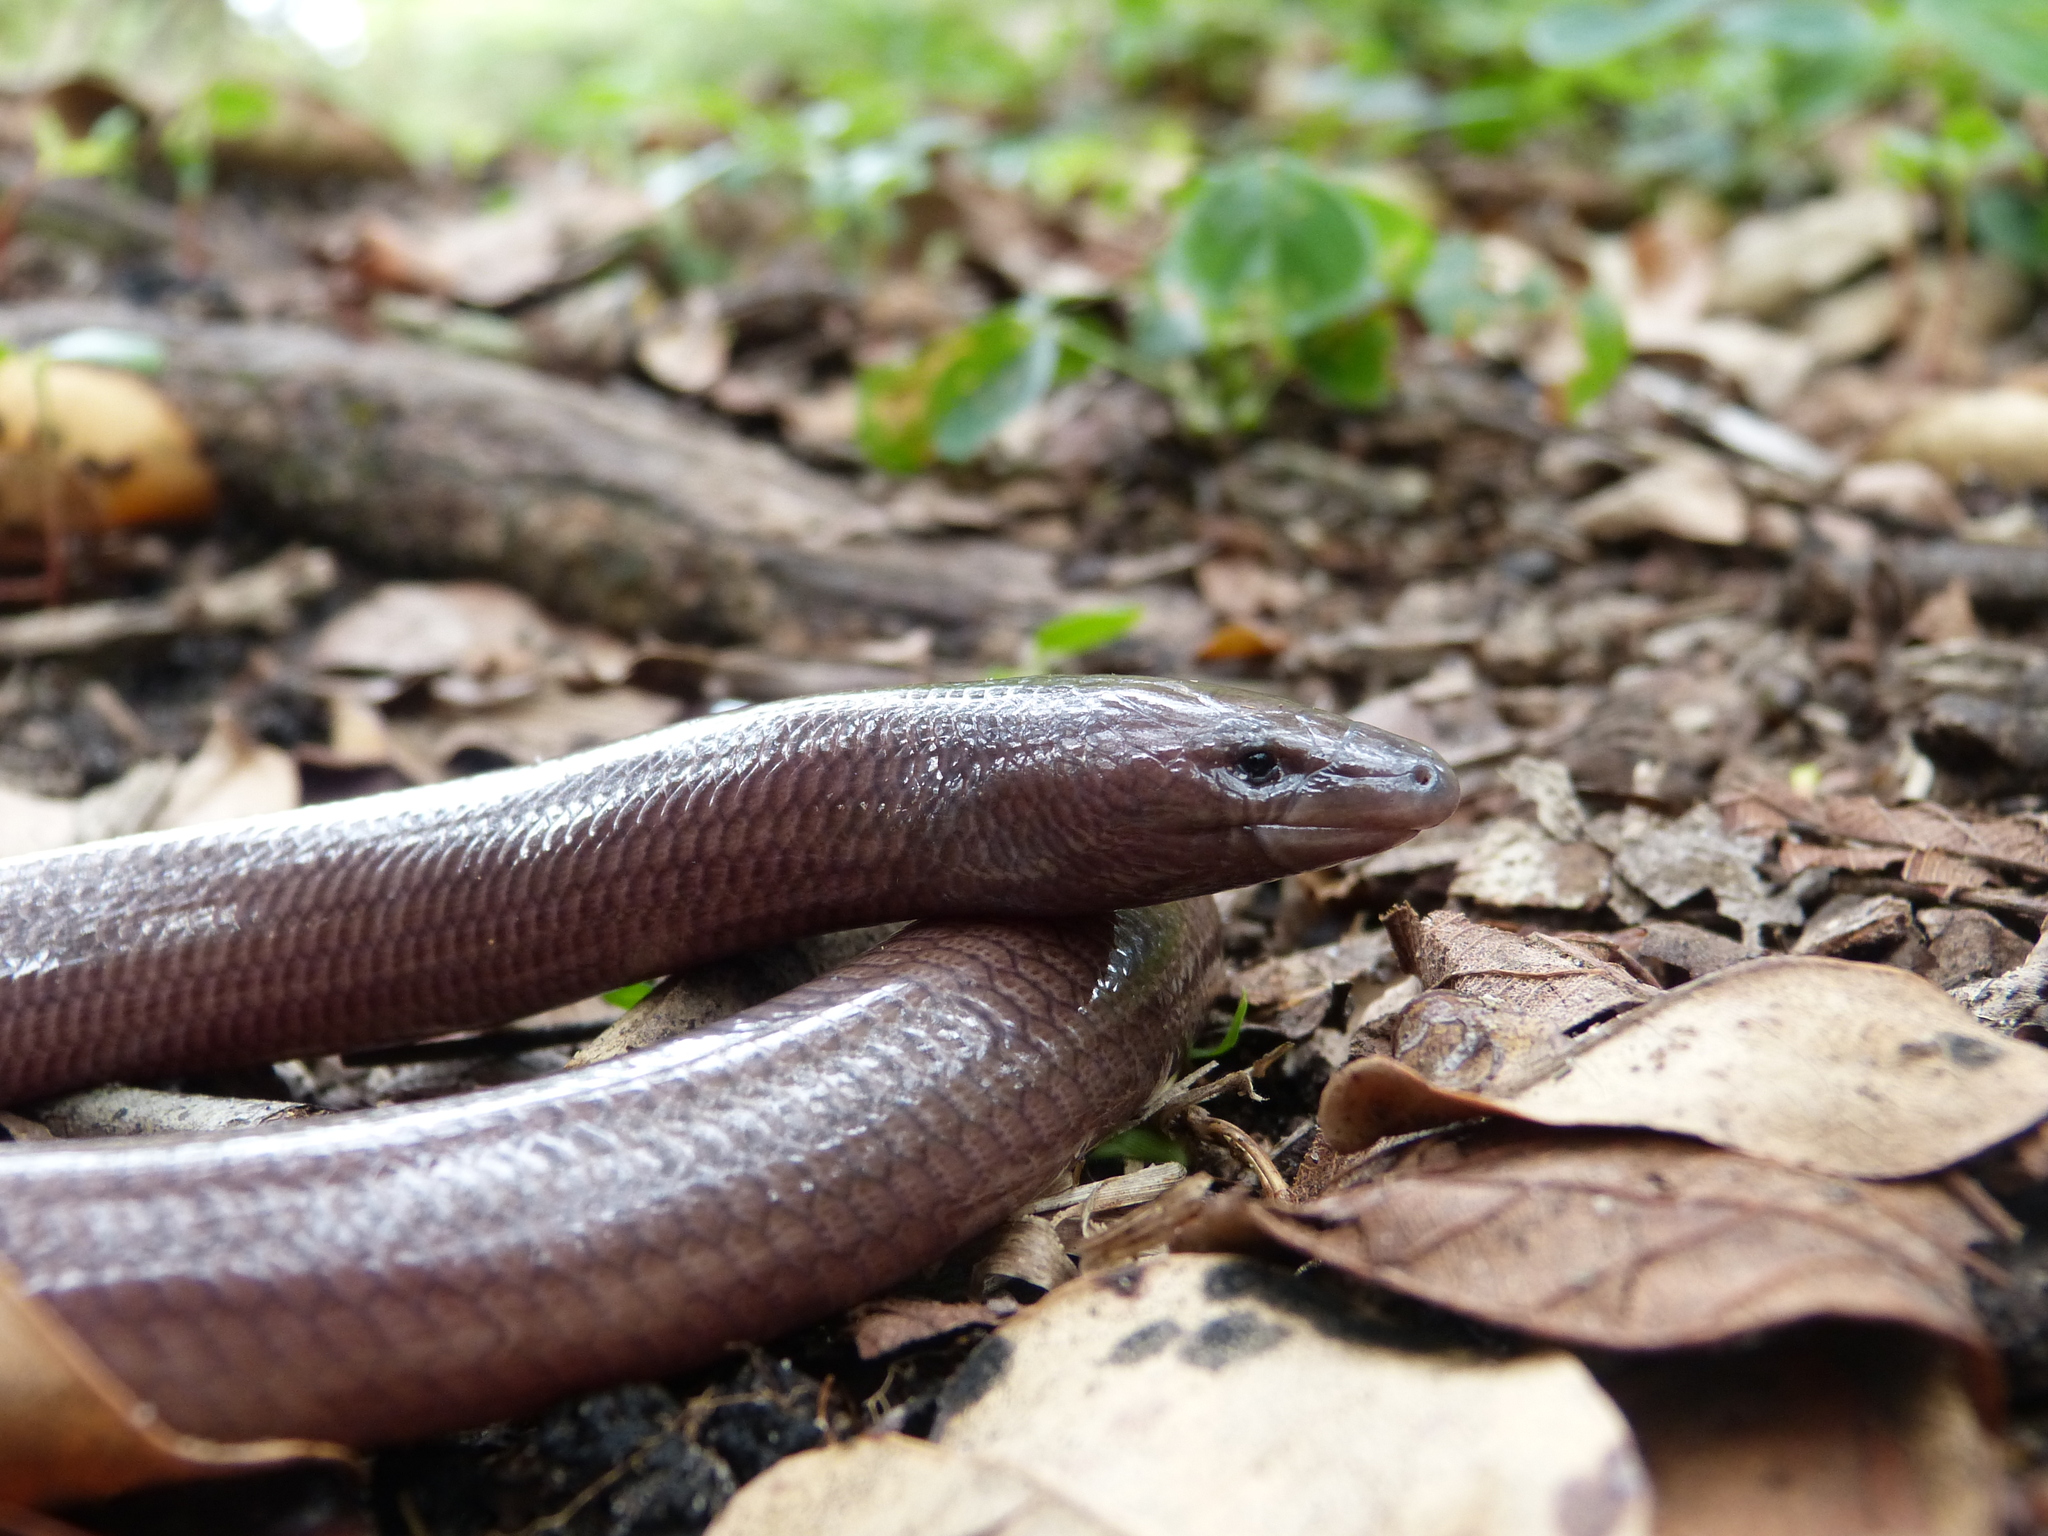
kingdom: Animalia
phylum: Chordata
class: Squamata
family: Scincidae
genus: Acontias
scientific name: Acontias plumbeus
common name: Giant lance skink
